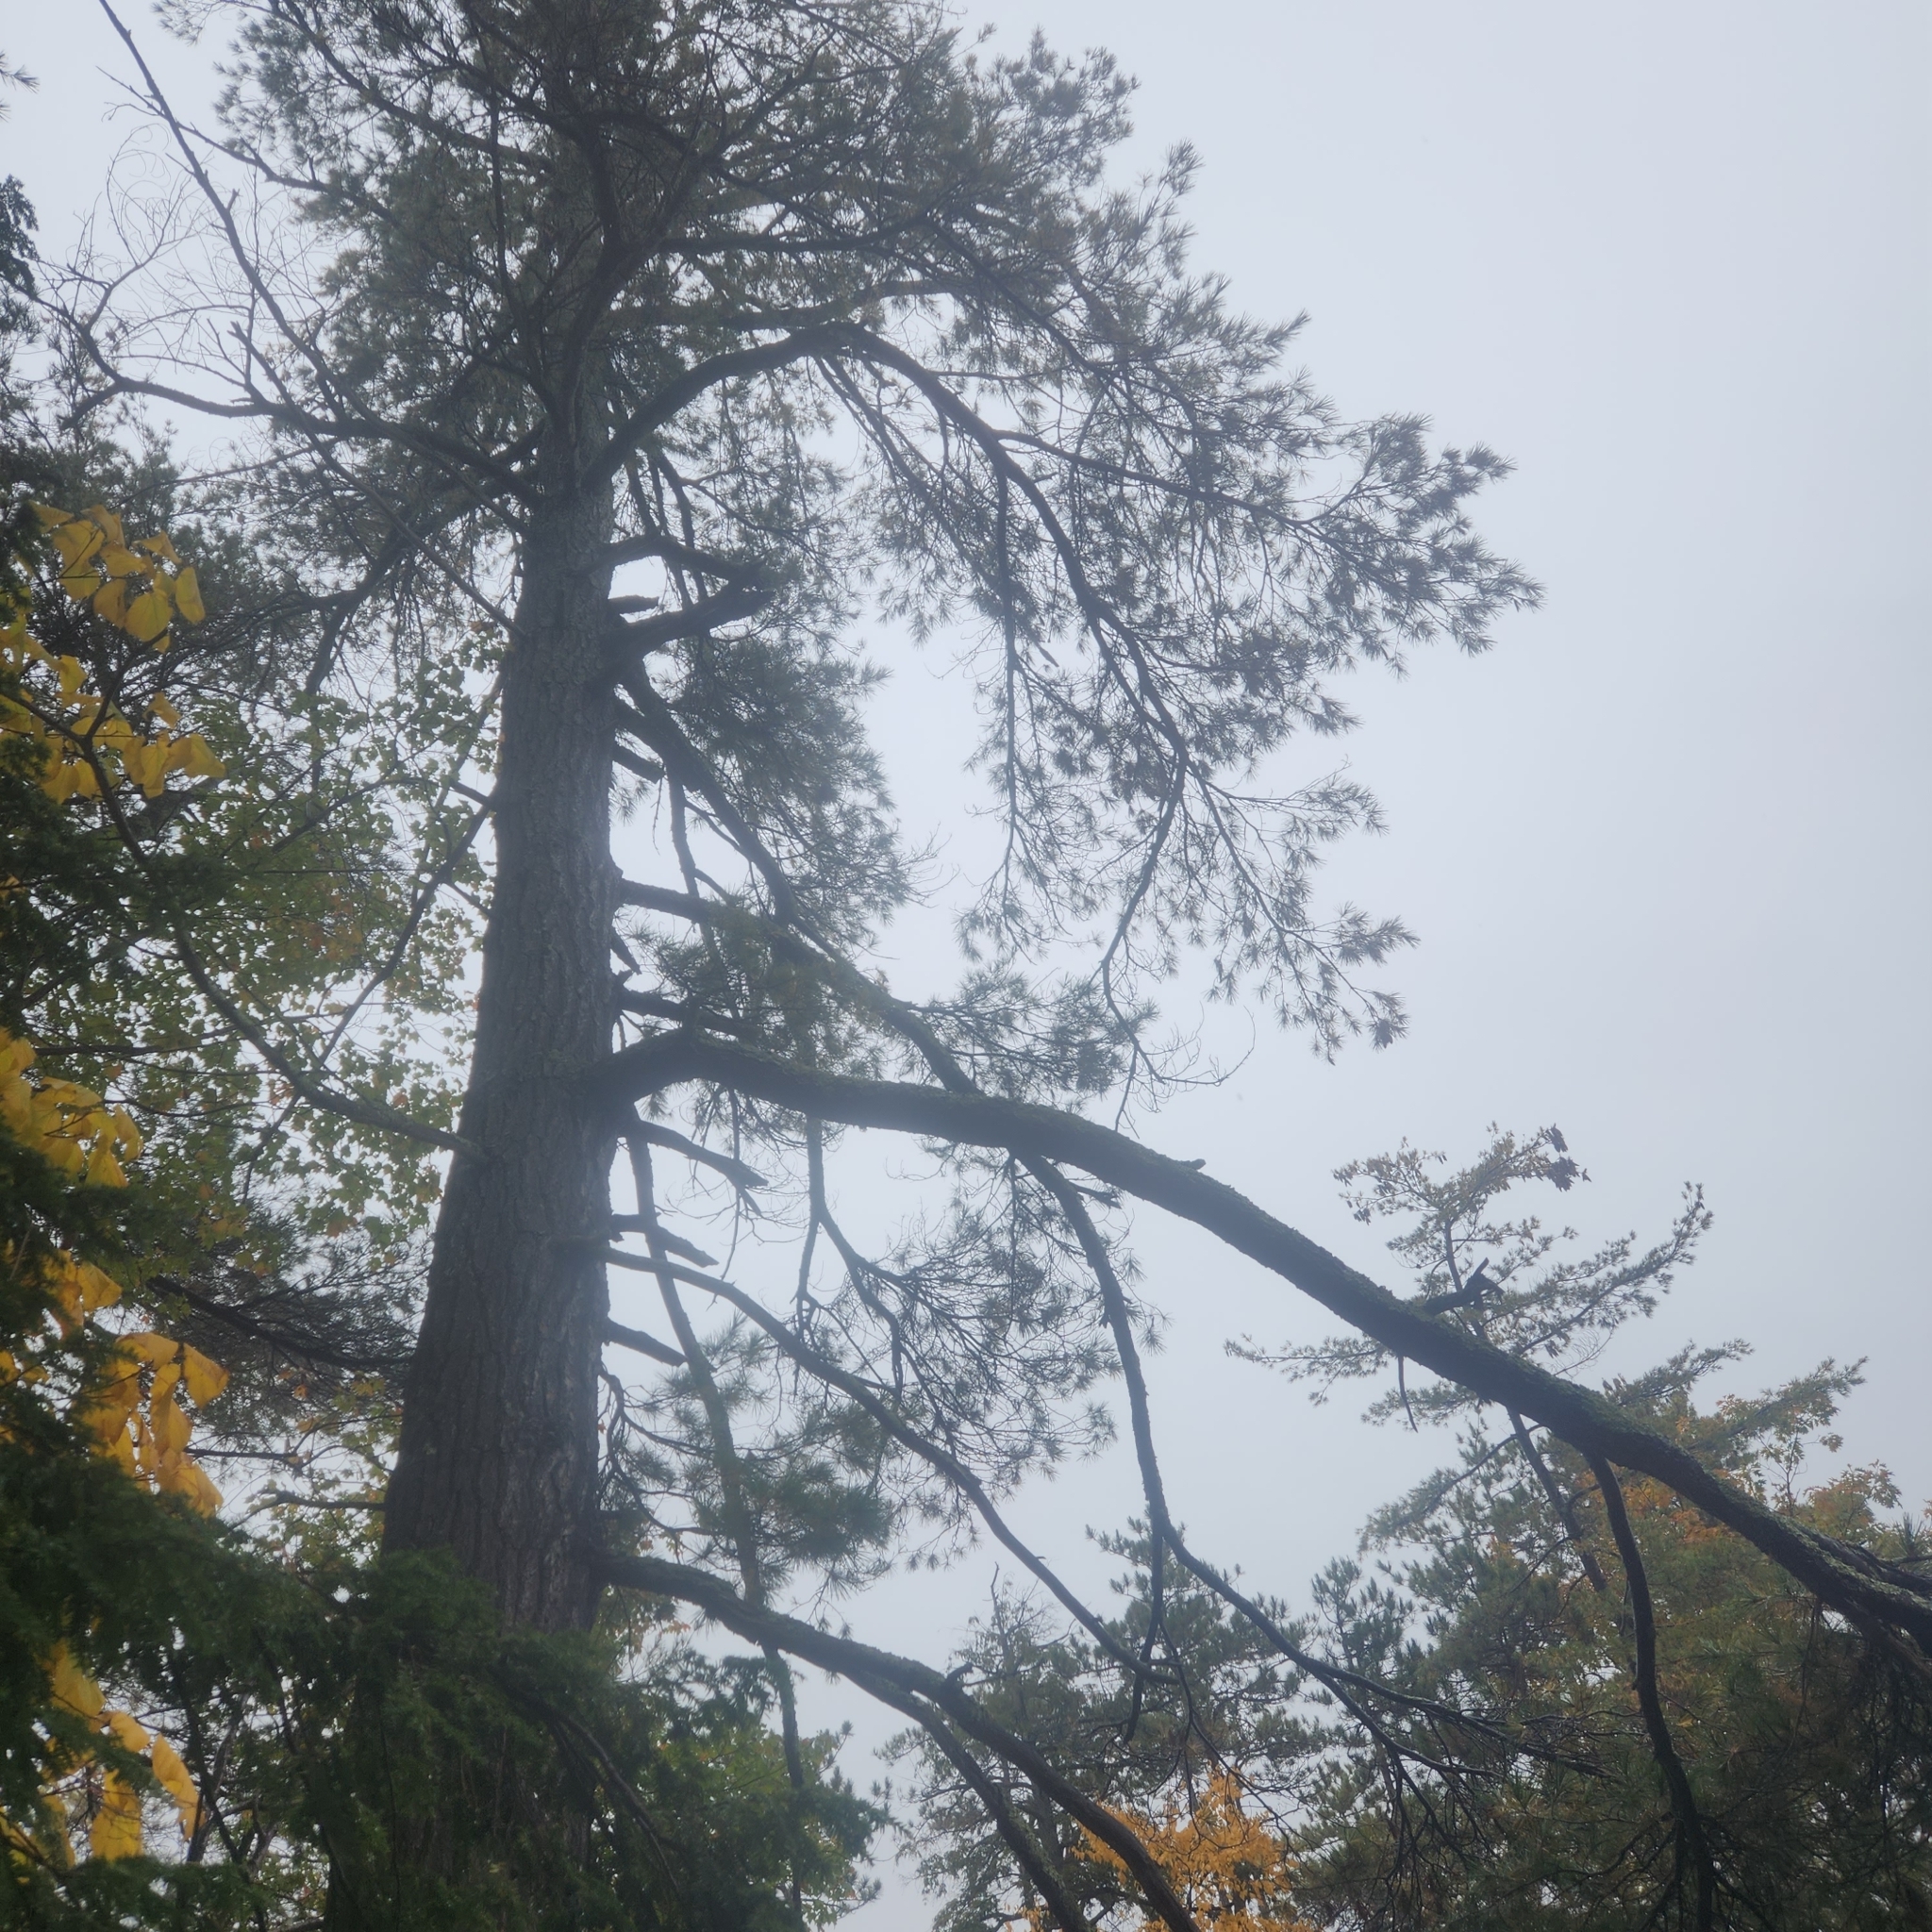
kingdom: Plantae
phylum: Tracheophyta
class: Pinopsida
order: Pinales
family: Pinaceae
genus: Pinus
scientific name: Pinus strobus
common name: Weymouth pine
